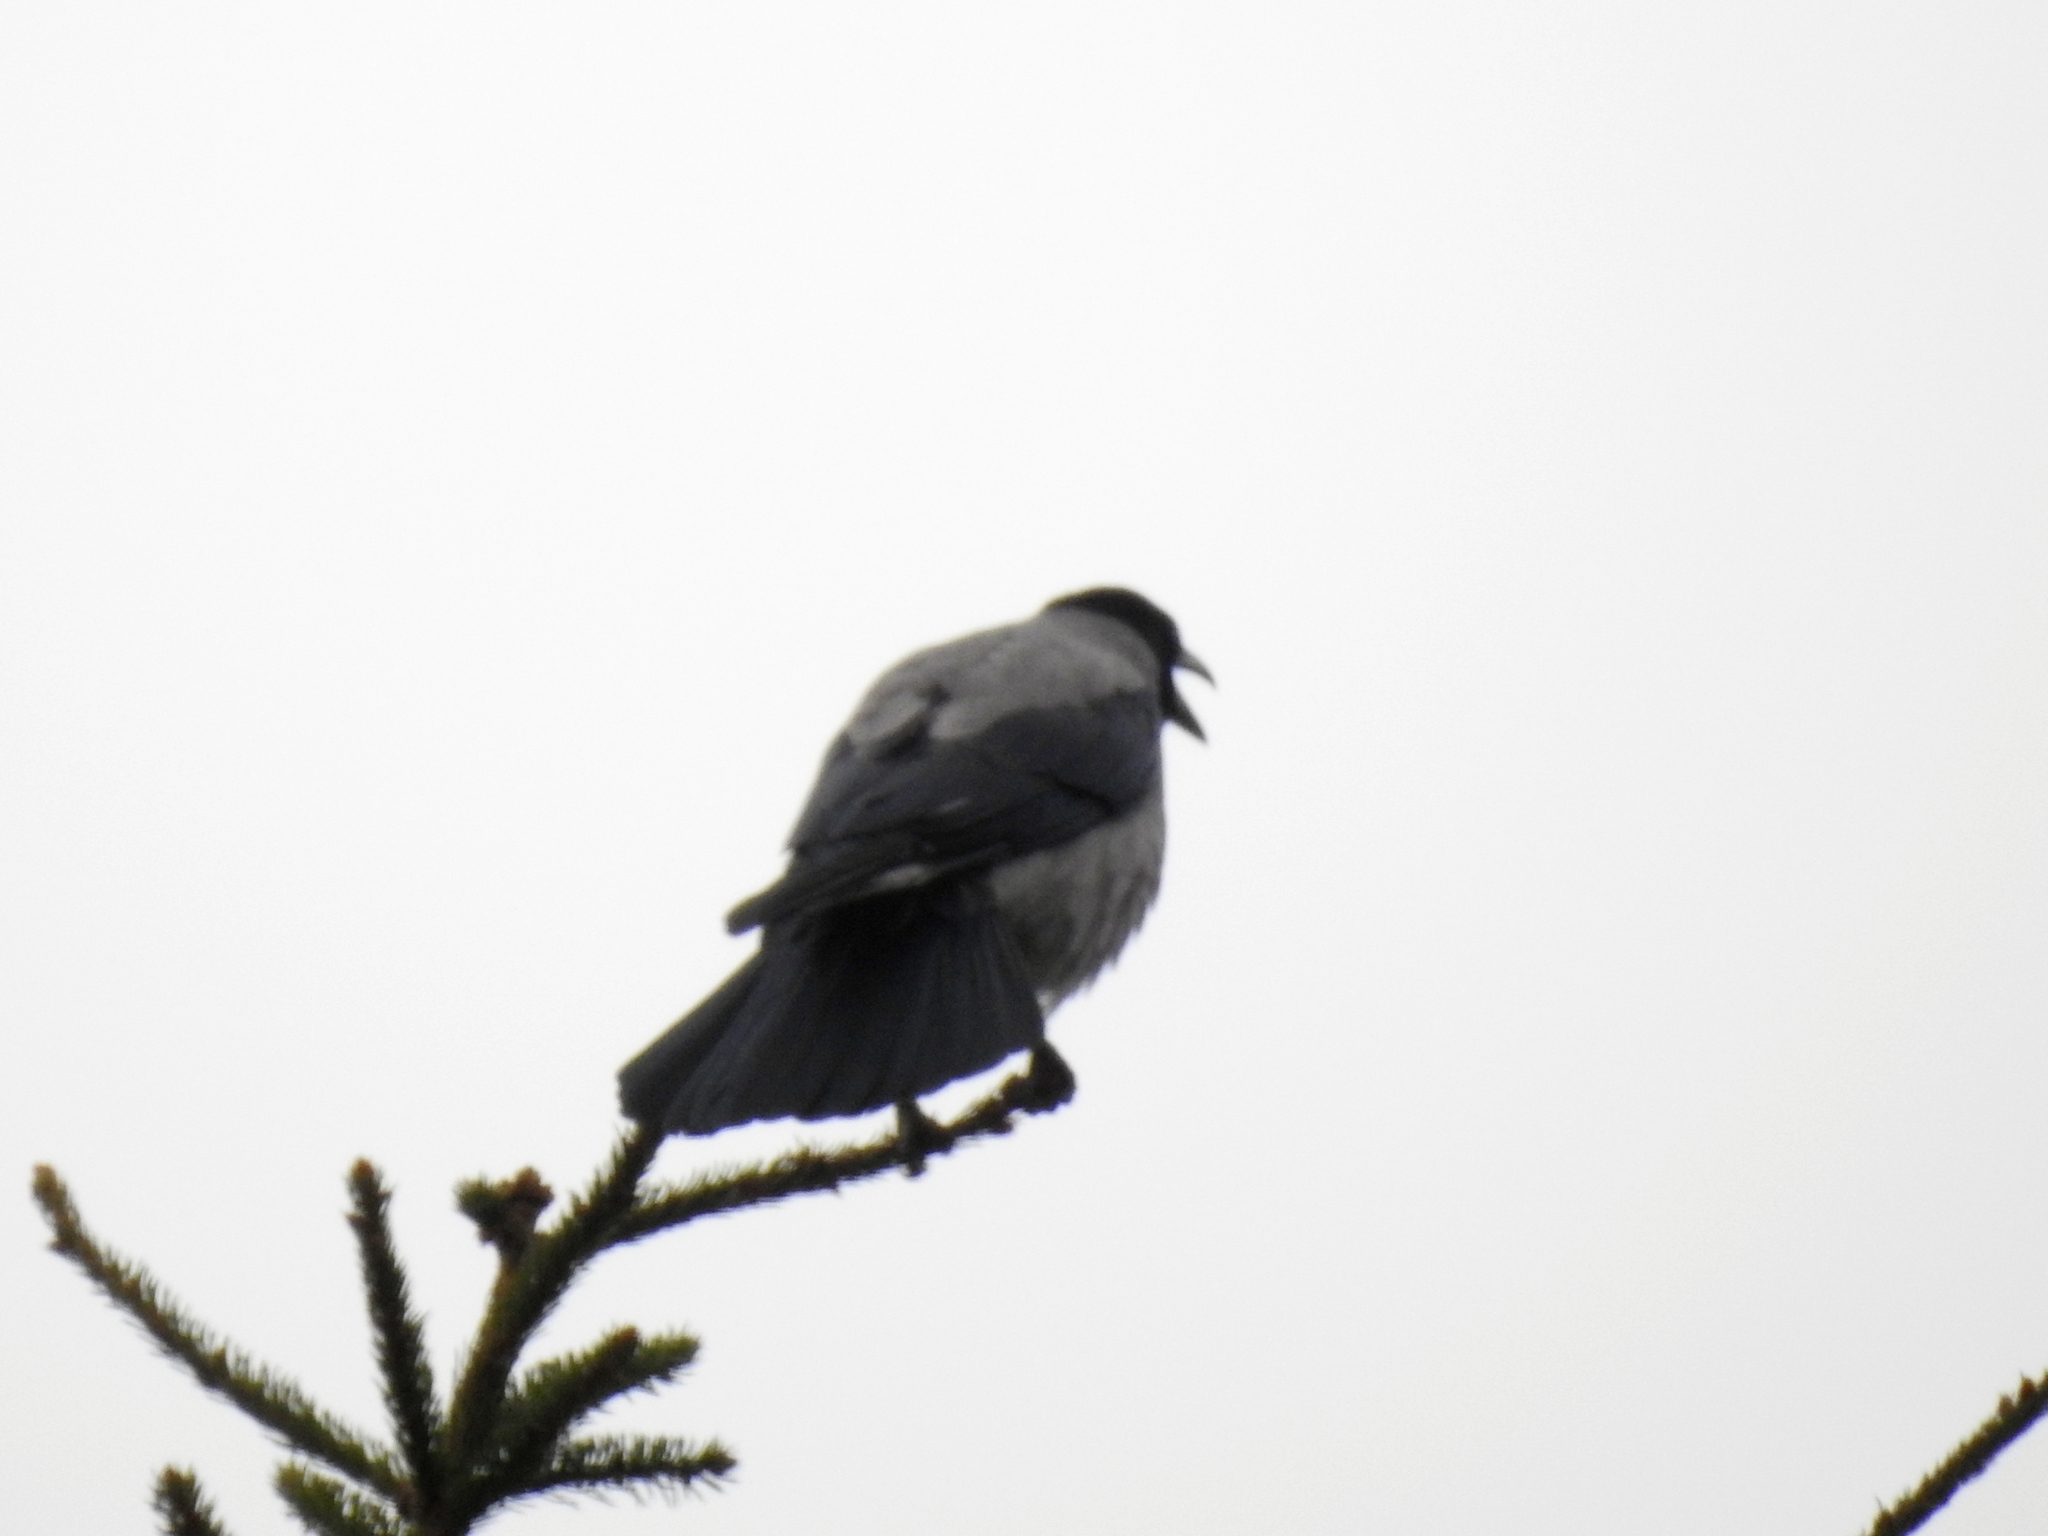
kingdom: Animalia
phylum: Chordata
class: Aves
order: Passeriformes
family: Corvidae
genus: Corvus
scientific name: Corvus cornix
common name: Hooded crow
